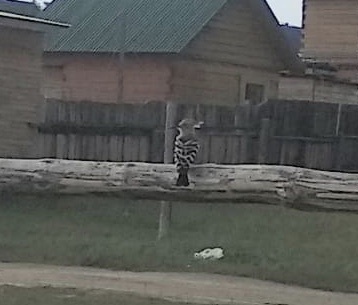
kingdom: Animalia
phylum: Chordata
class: Aves
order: Bucerotiformes
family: Upupidae
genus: Upupa
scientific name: Upupa epops
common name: Eurasian hoopoe
